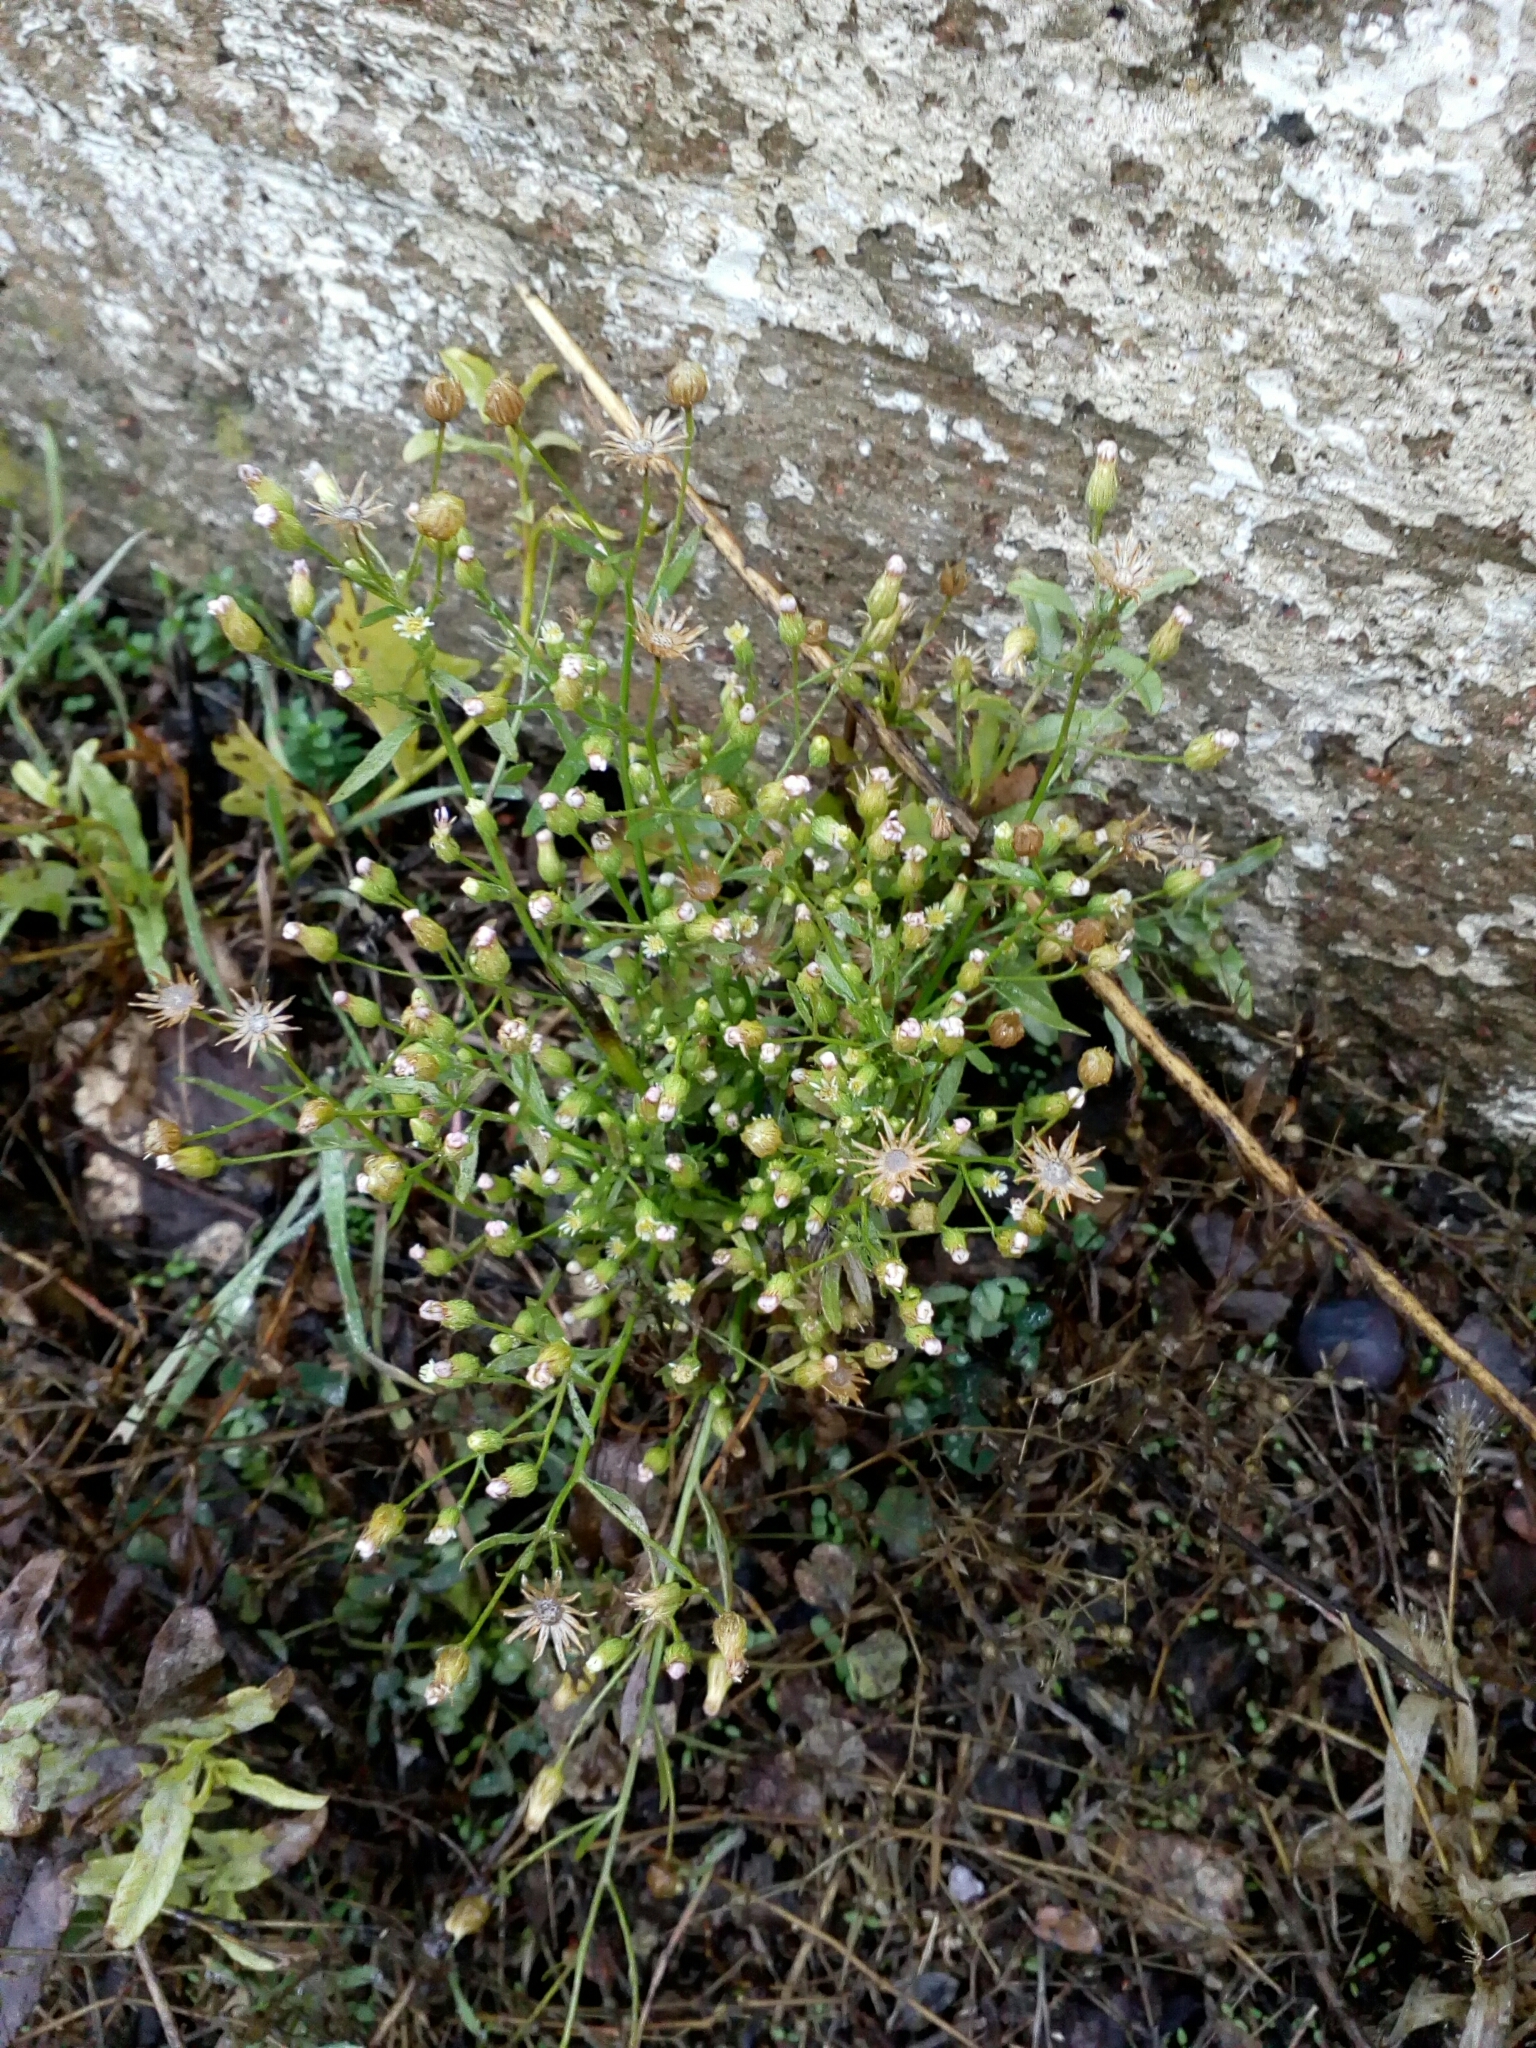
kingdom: Plantae
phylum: Tracheophyta
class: Magnoliopsida
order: Asterales
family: Asteraceae
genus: Erigeron
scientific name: Erigeron canadensis
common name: Canadian fleabane
